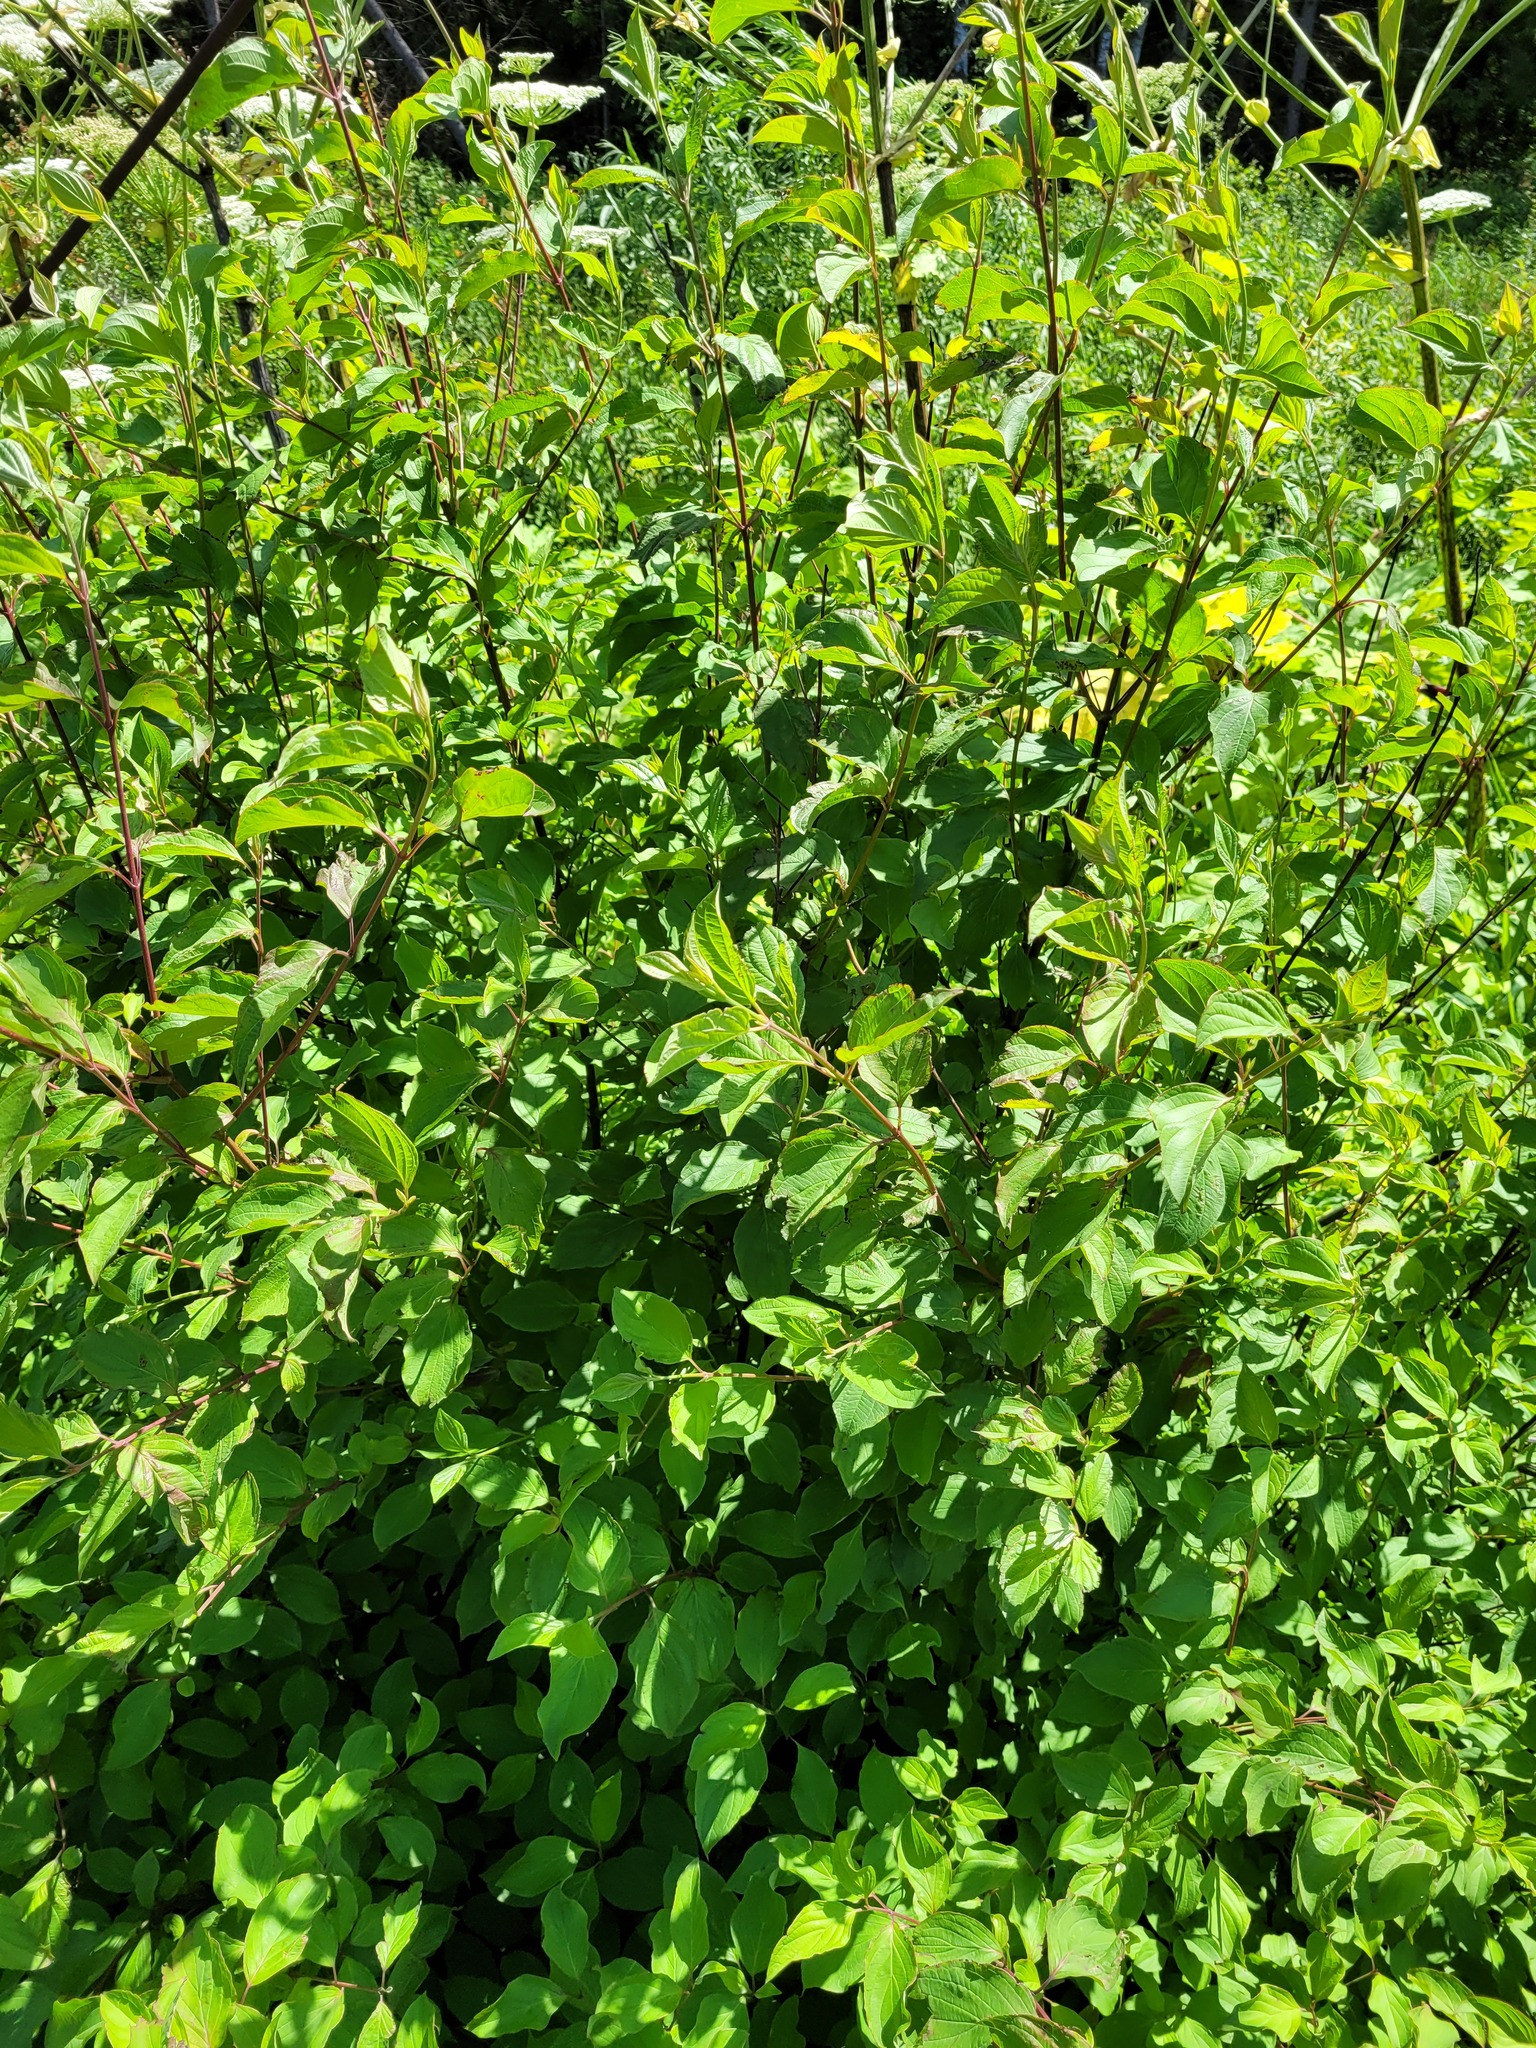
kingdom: Plantae
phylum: Tracheophyta
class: Magnoliopsida
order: Cornales
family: Cornaceae
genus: Cornus
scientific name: Cornus sanguinea
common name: Dogwood
